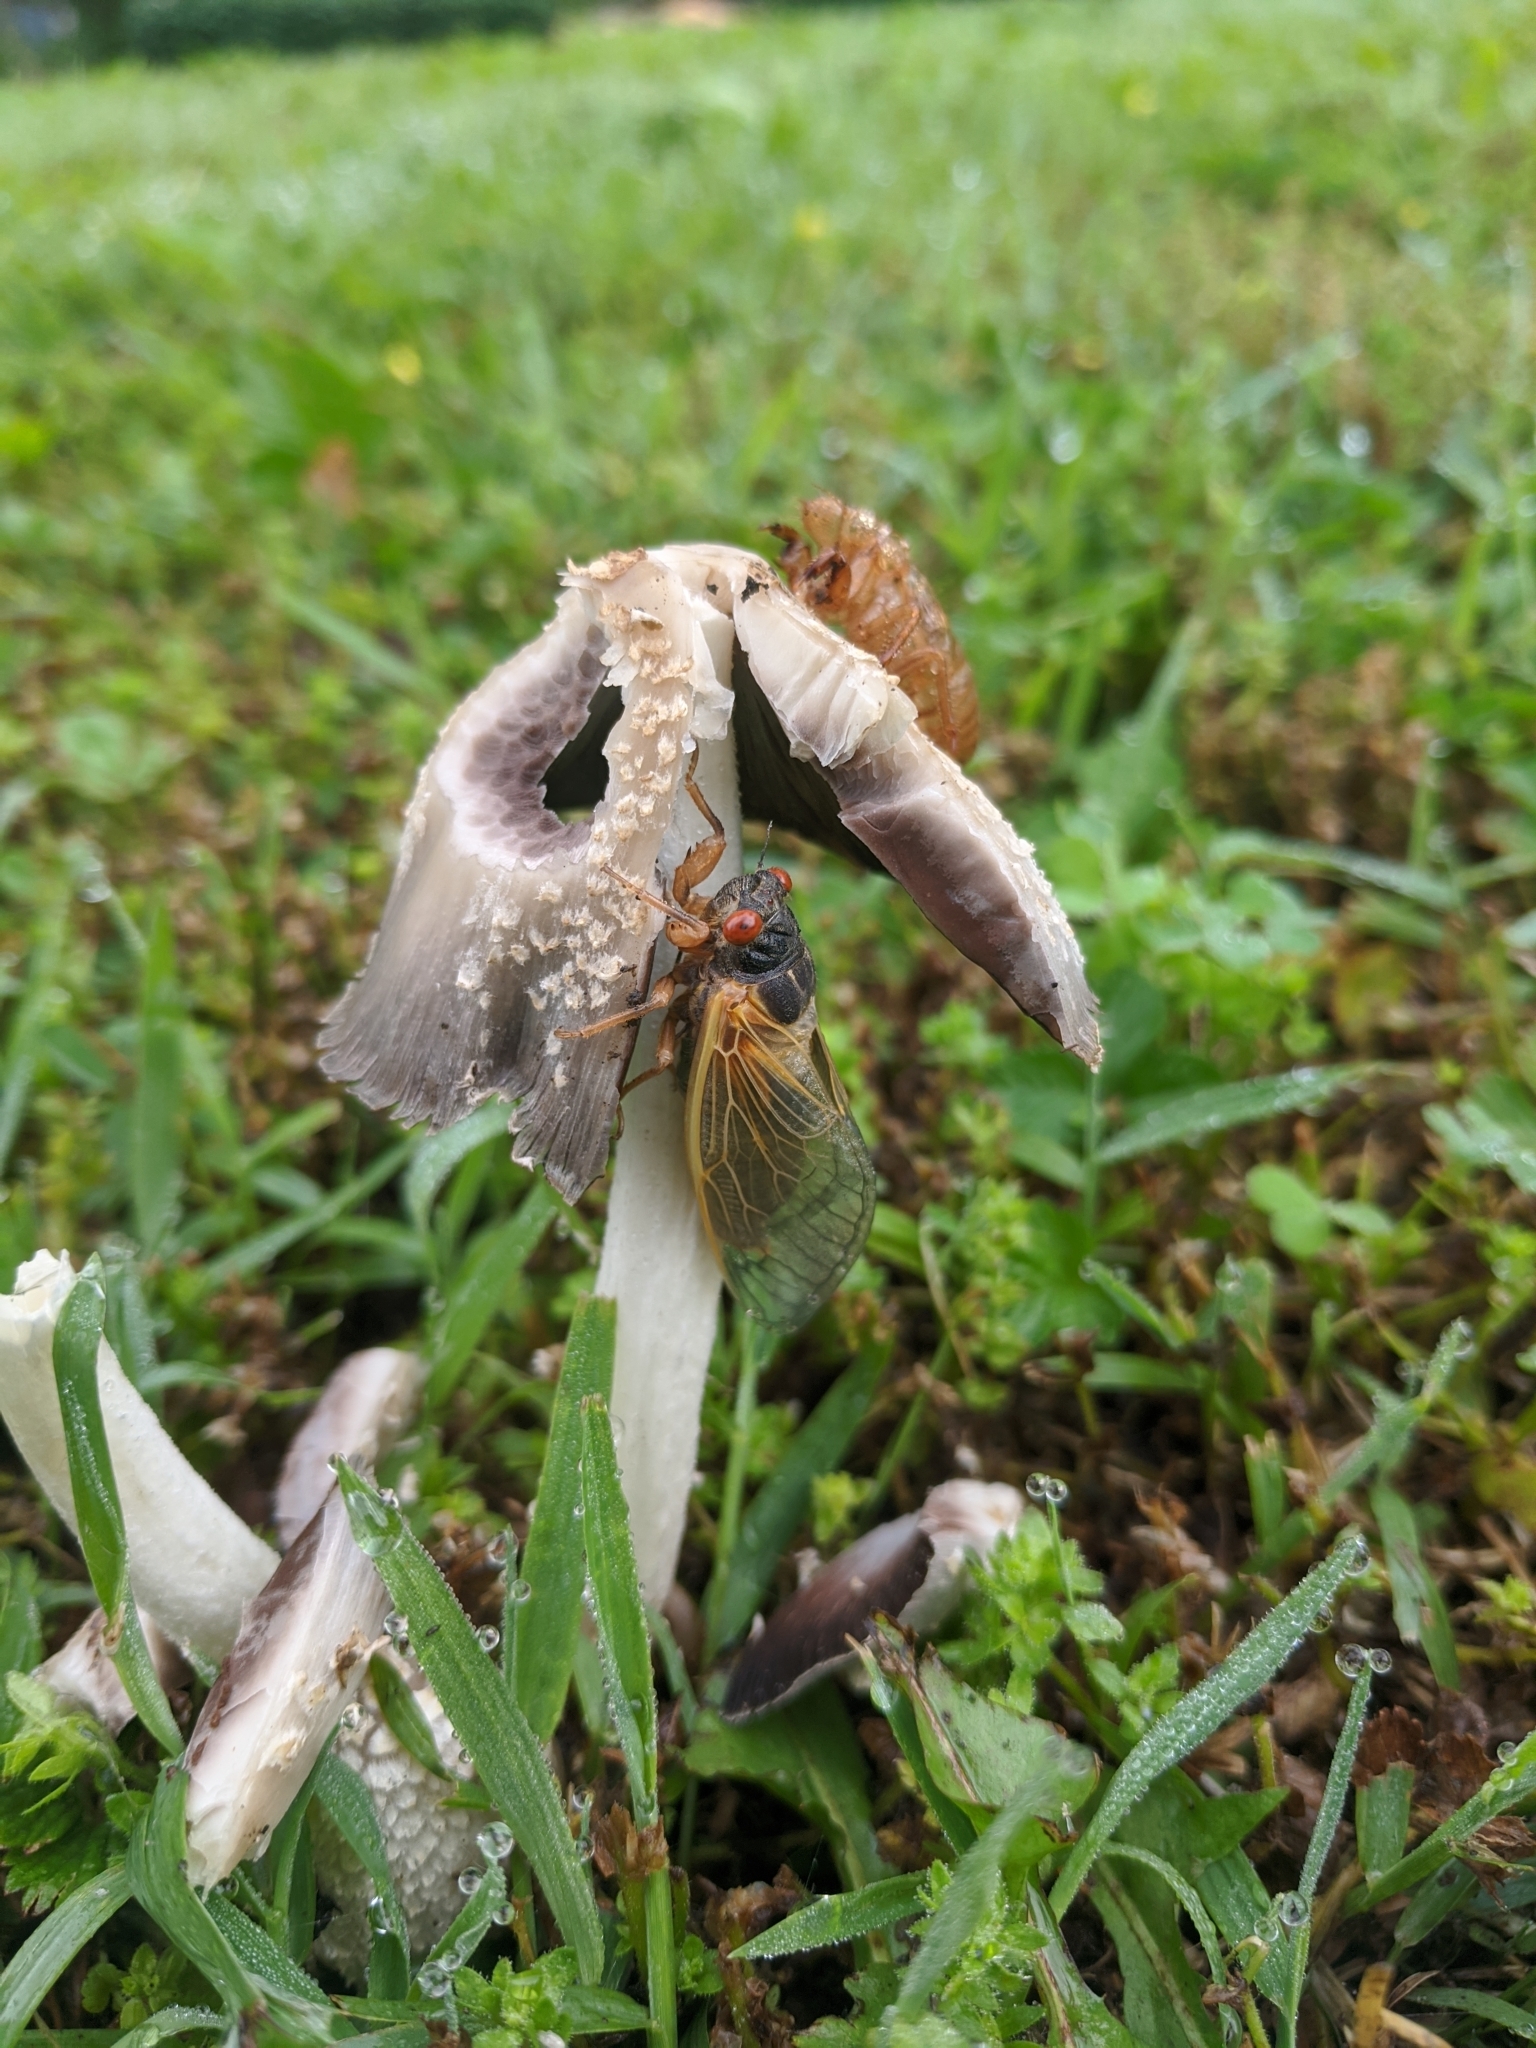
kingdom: Animalia
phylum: Arthropoda
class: Insecta
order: Hemiptera
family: Cicadidae
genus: Magicicada
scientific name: Magicicada
